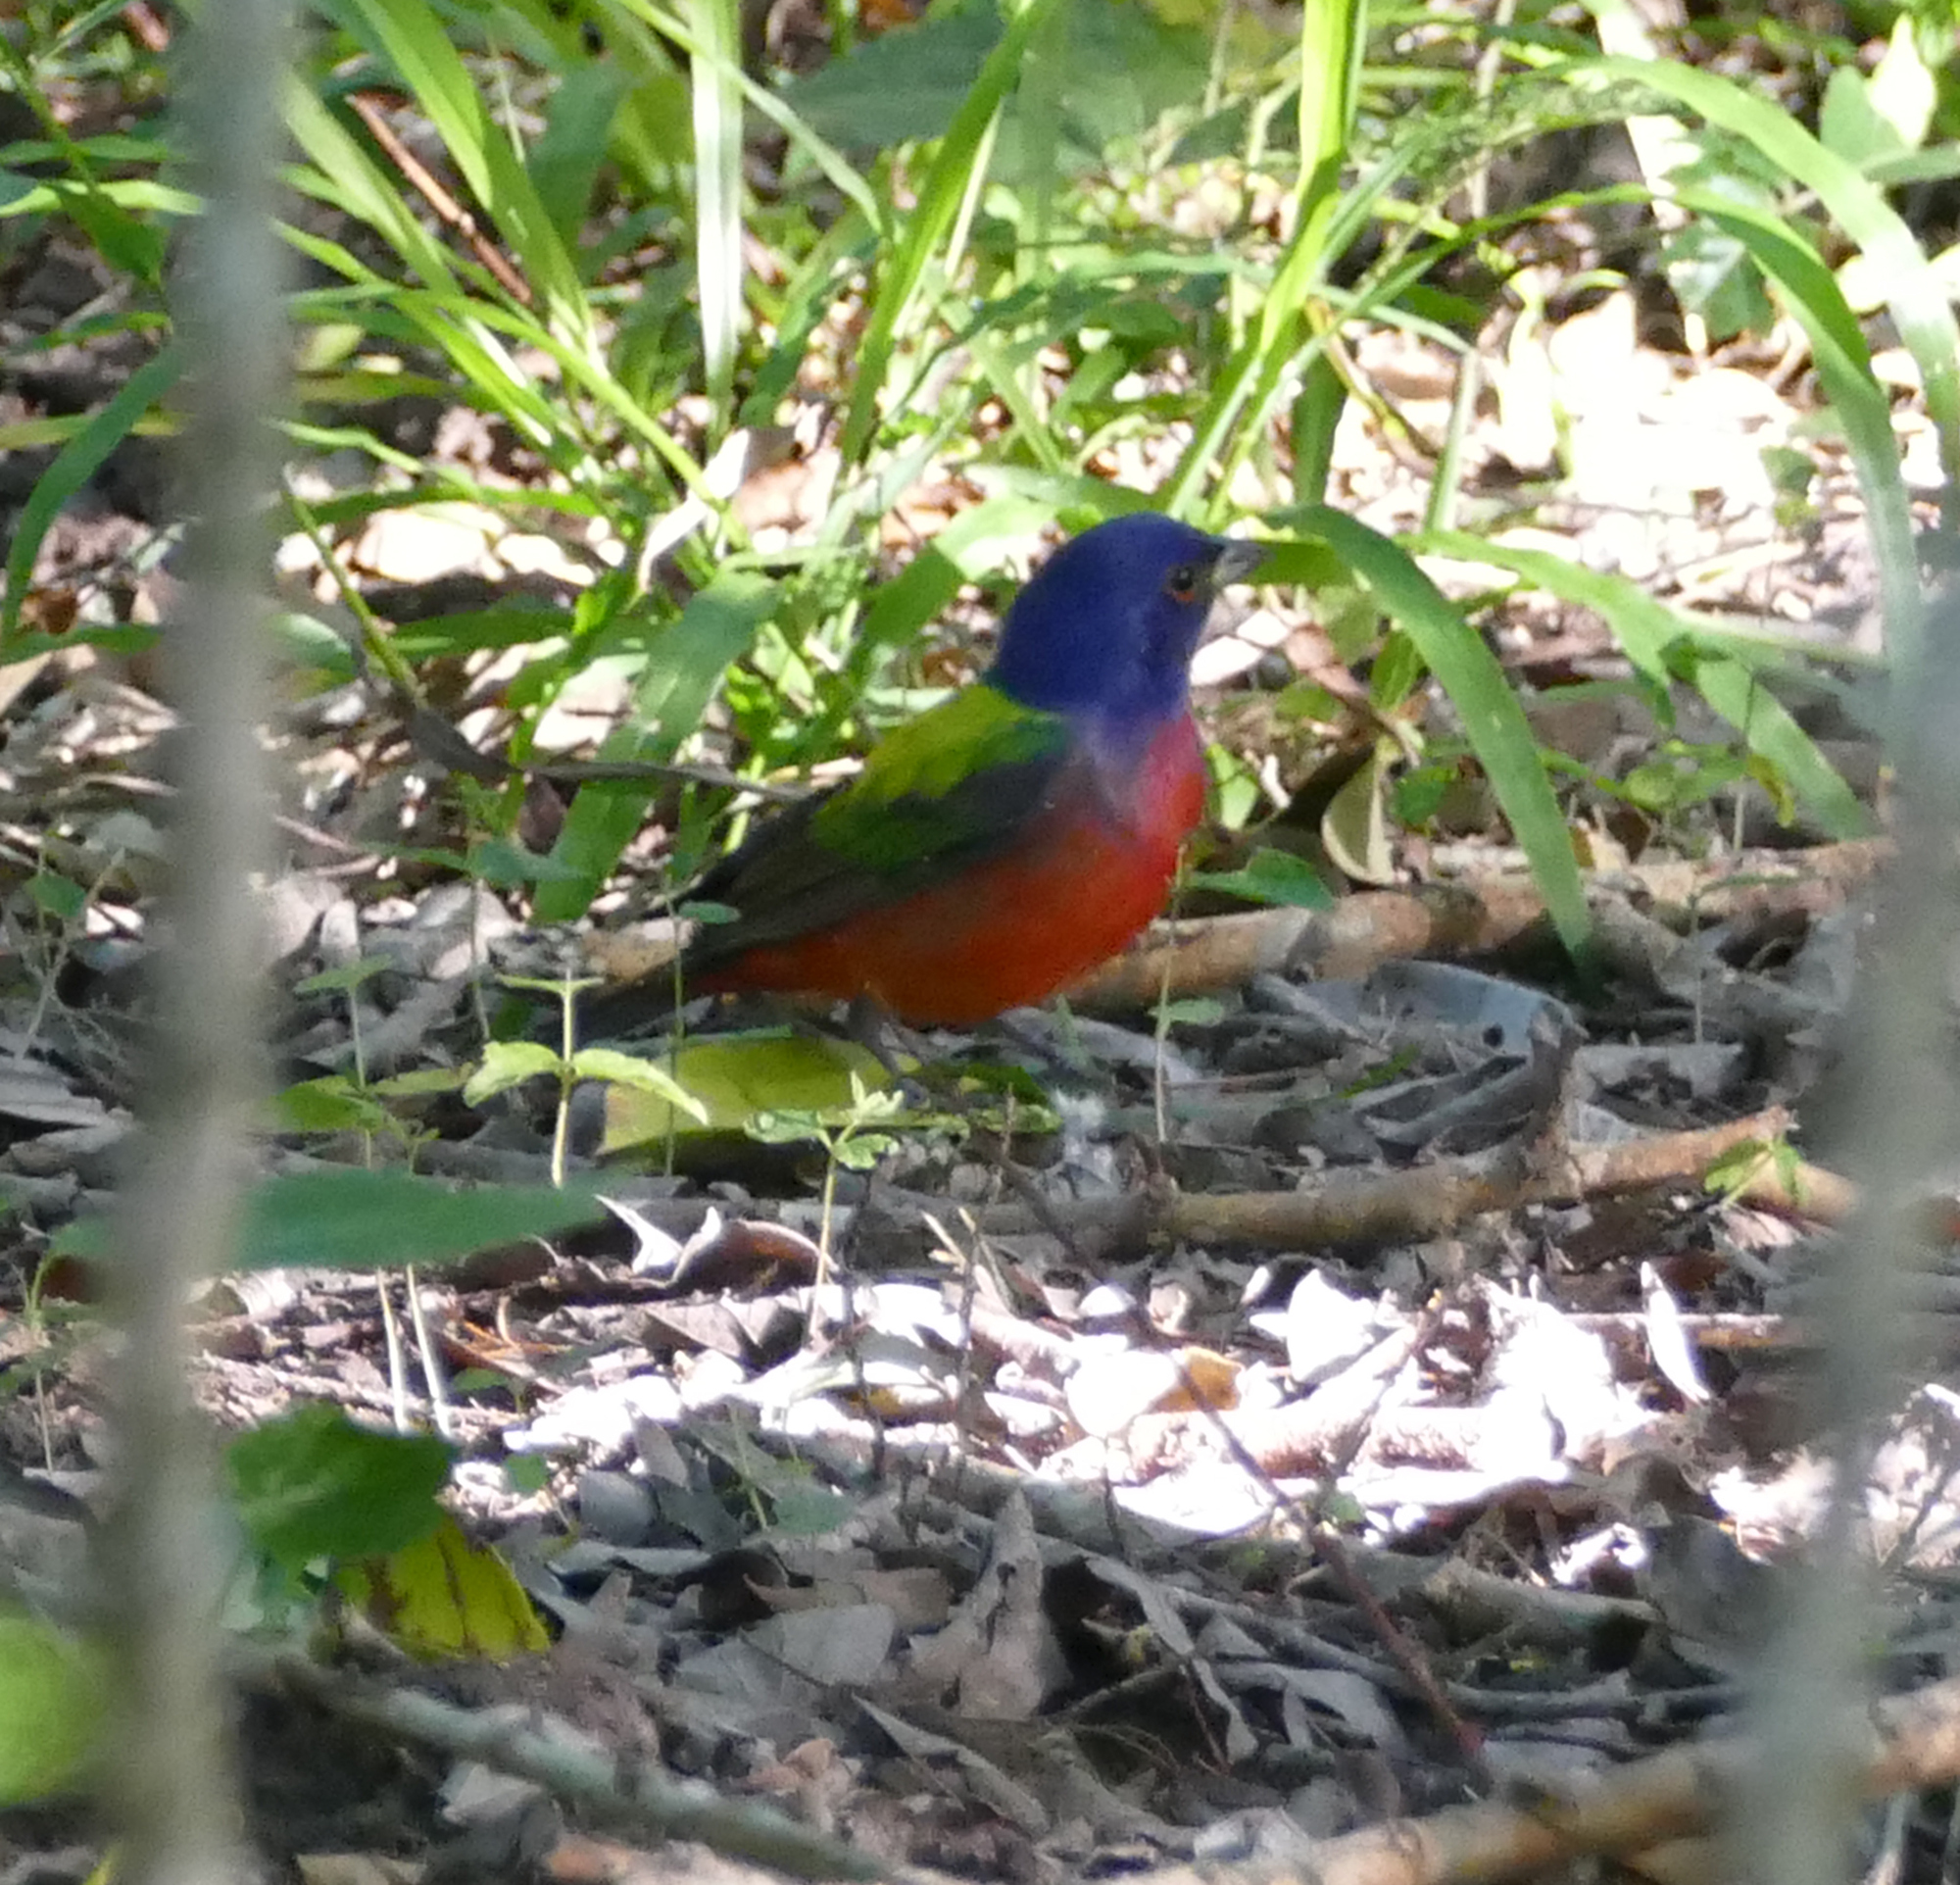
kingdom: Animalia
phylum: Chordata
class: Aves
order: Passeriformes
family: Cardinalidae
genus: Passerina
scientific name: Passerina ciris
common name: Painted bunting
